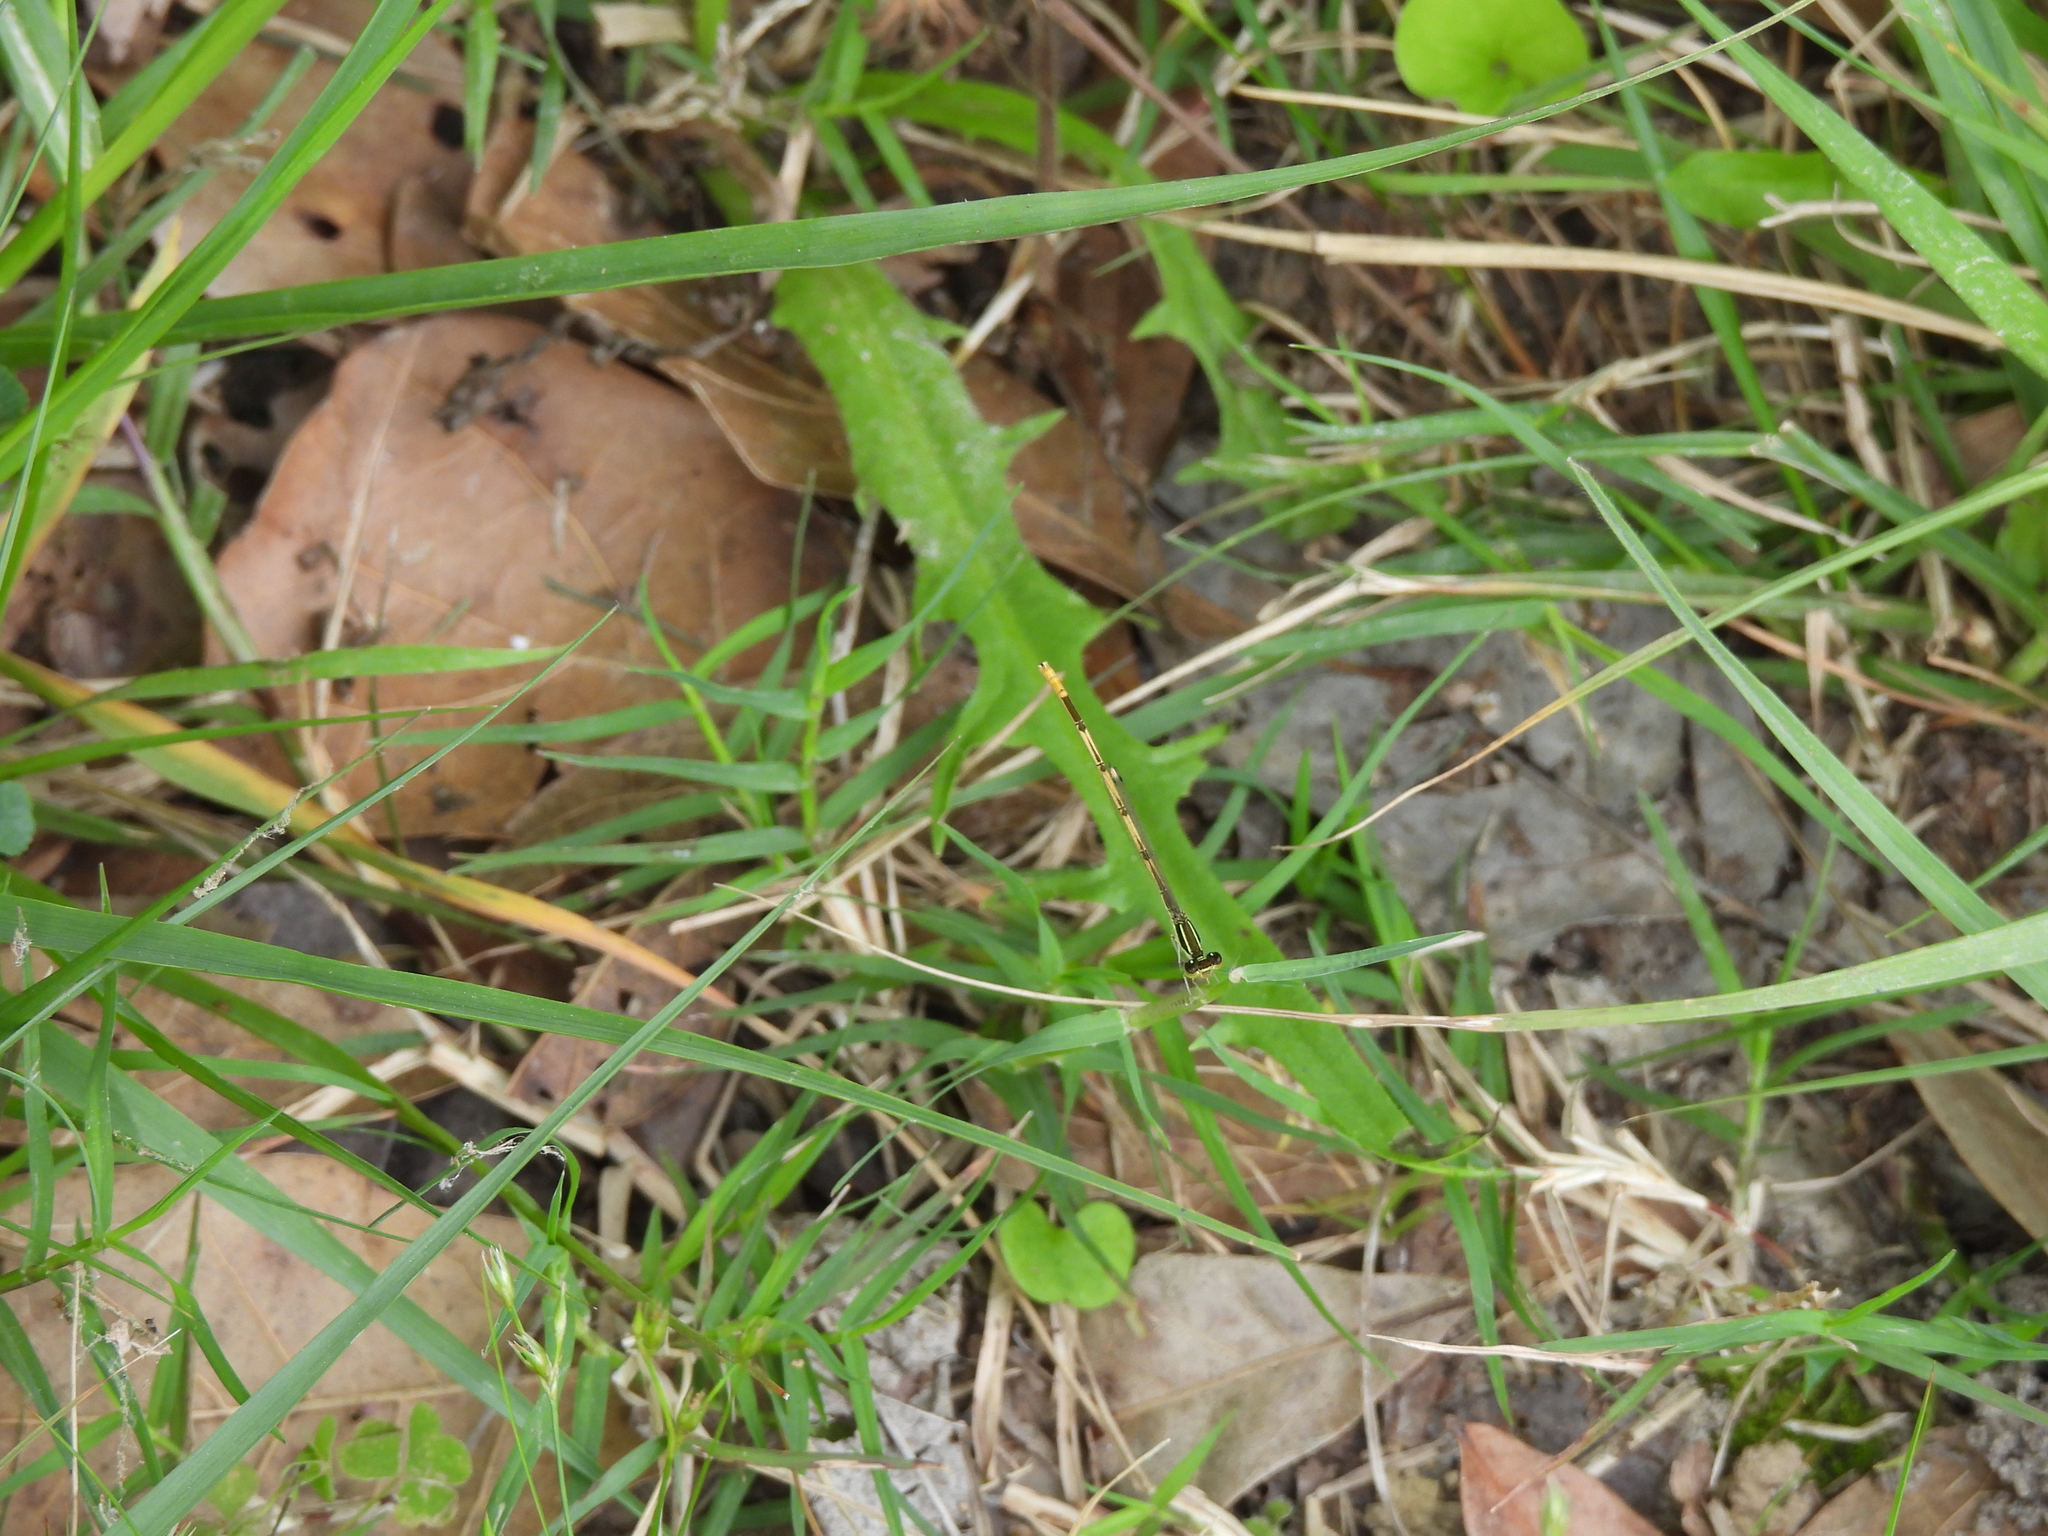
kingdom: Animalia
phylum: Arthropoda
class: Insecta
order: Odonata
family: Coenagrionidae
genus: Ischnura
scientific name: Ischnura hastata
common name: Citrine forktail
